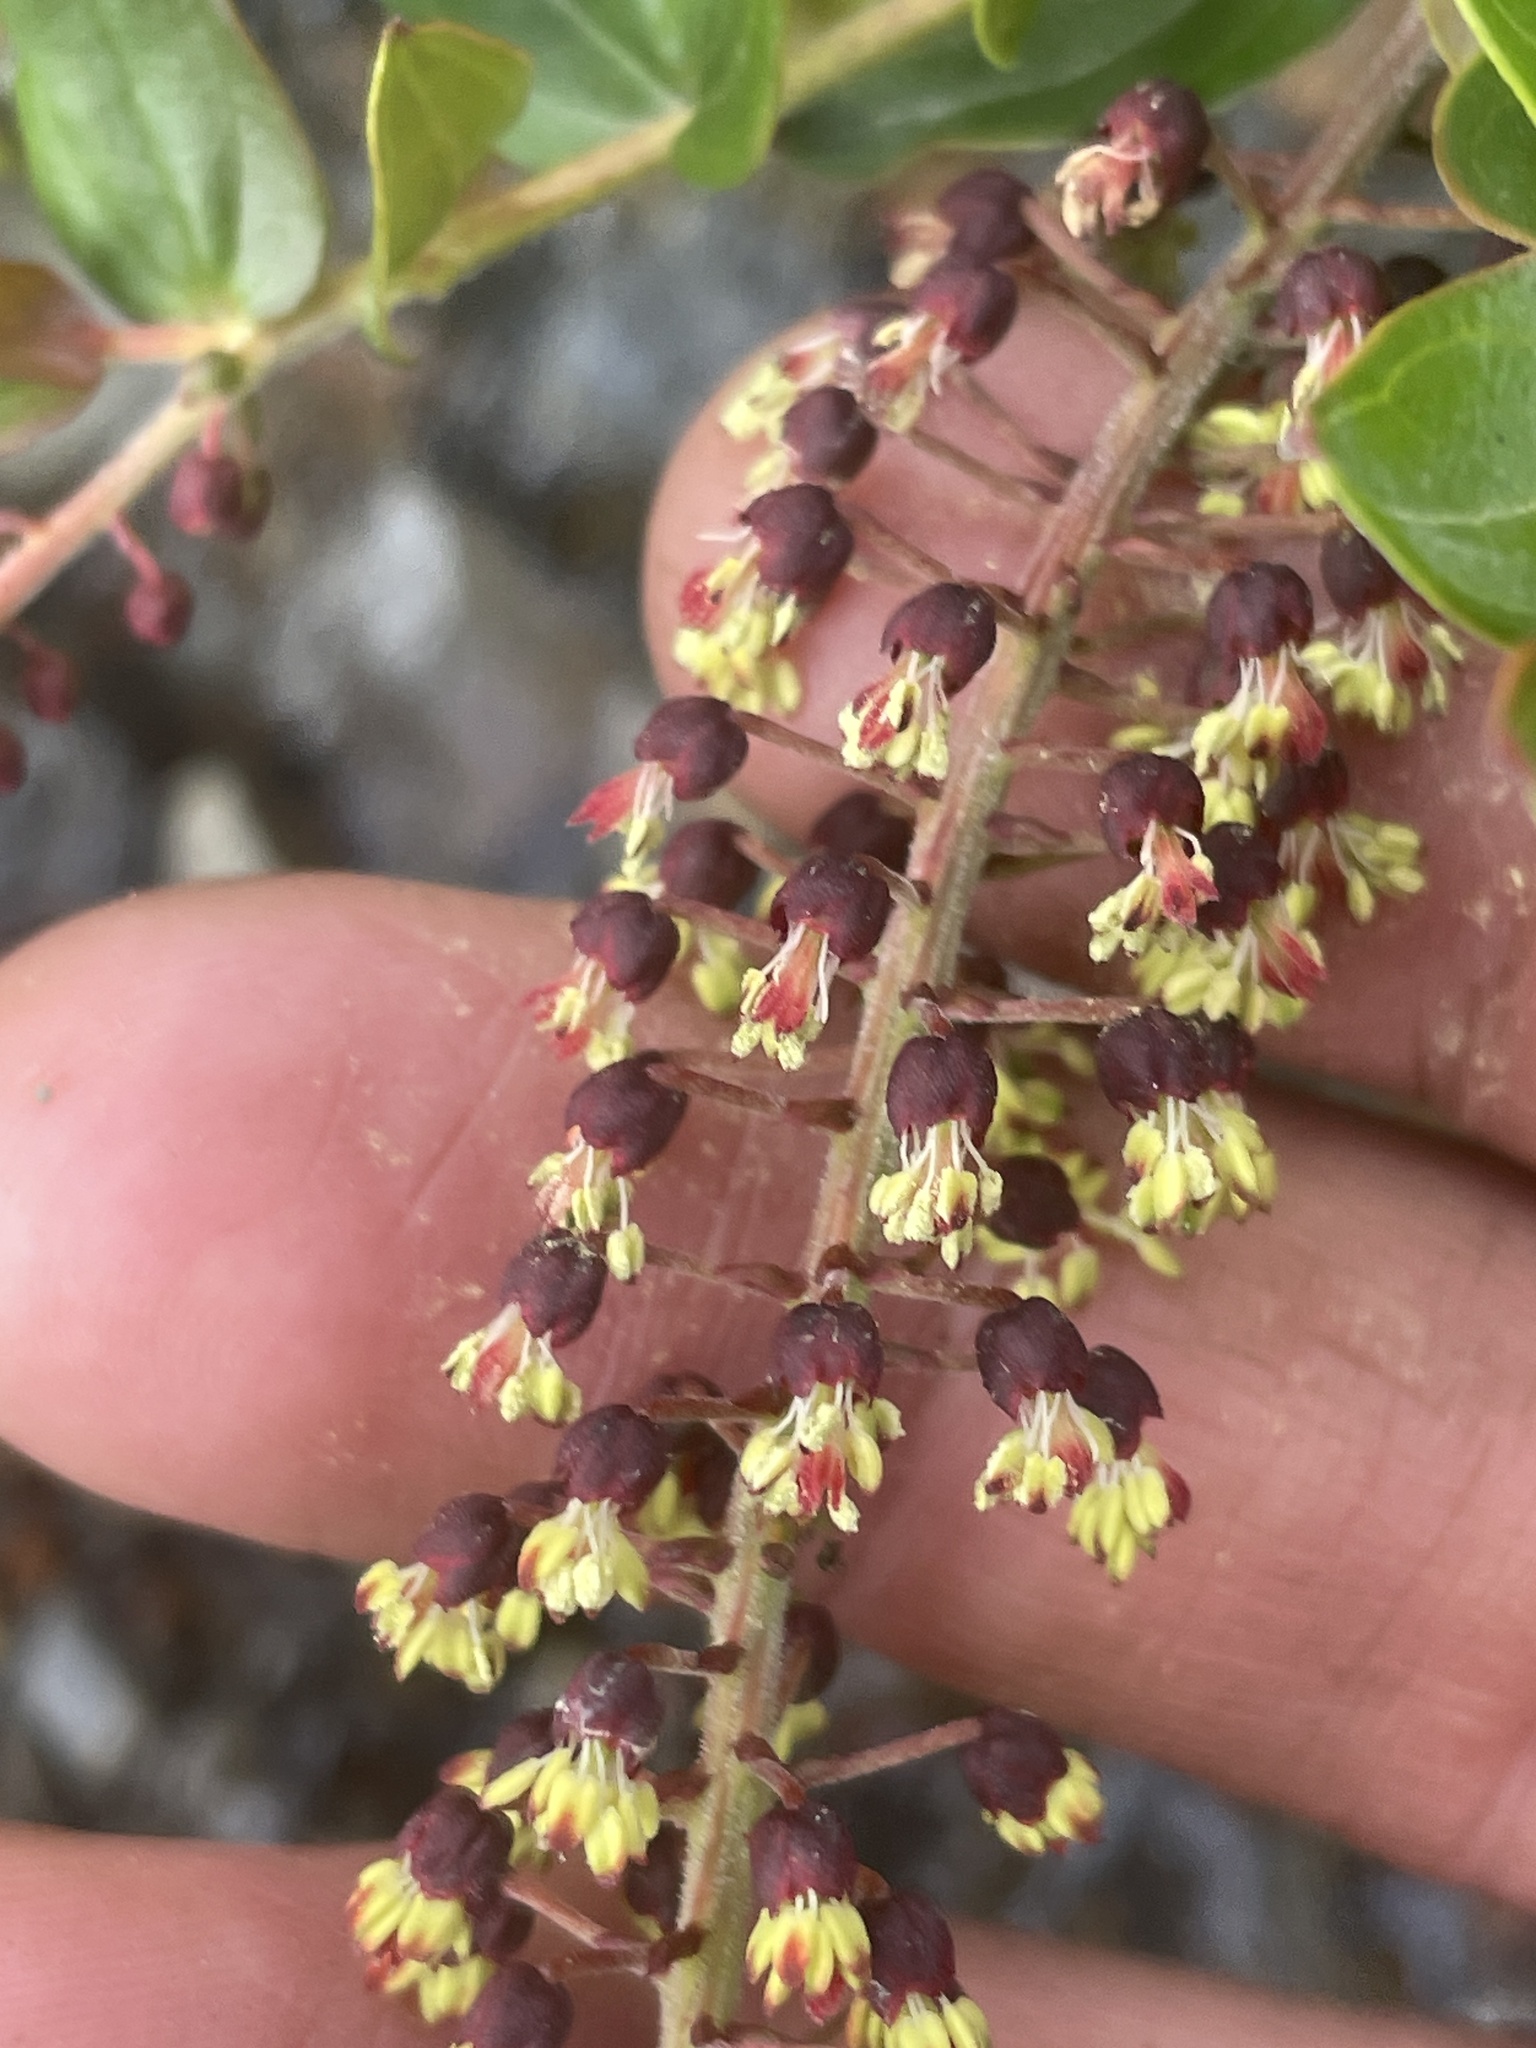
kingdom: Plantae
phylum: Tracheophyta
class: Magnoliopsida
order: Cucurbitales
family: Coriariaceae
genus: Coriaria
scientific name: Coriaria ruscifolia
